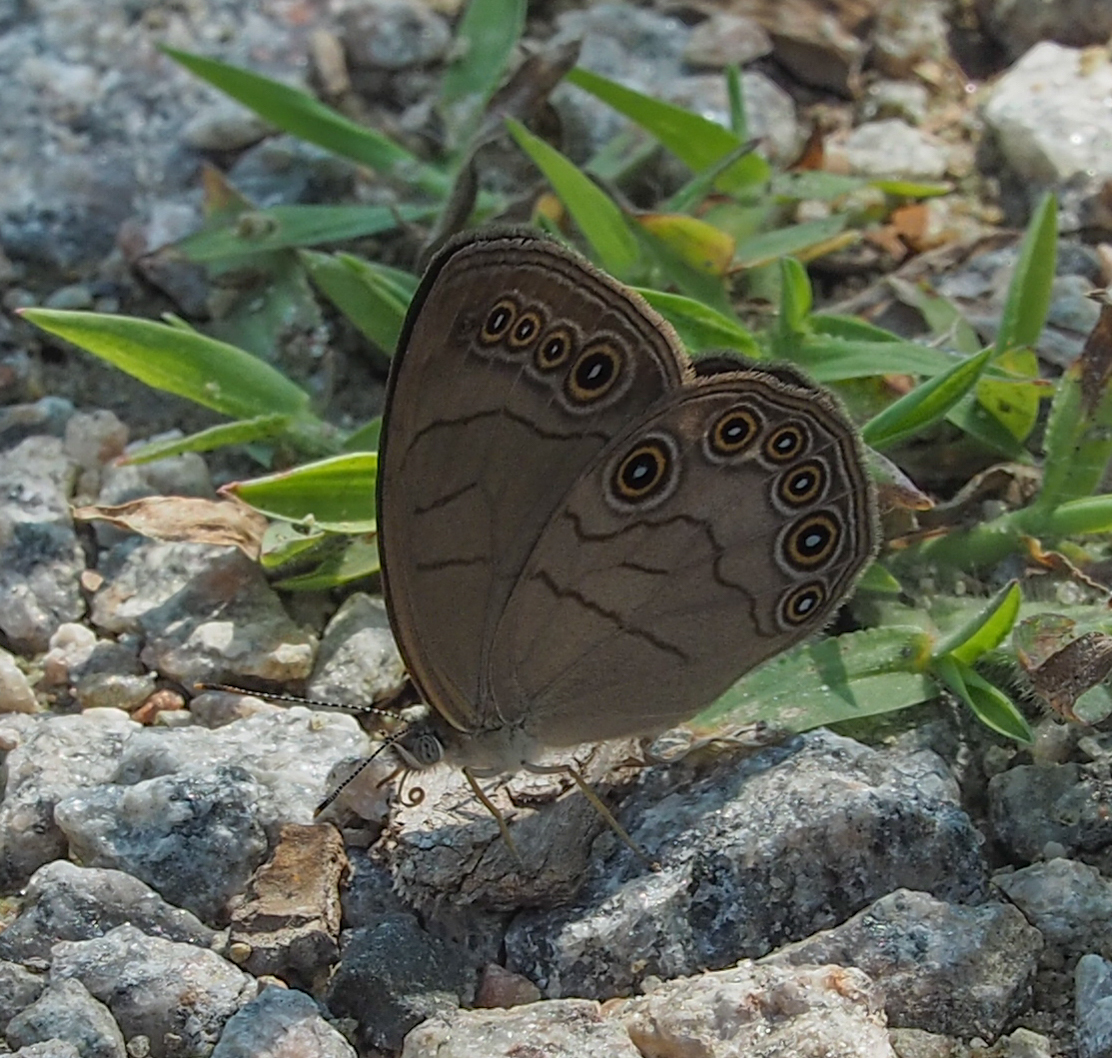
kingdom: Animalia
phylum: Arthropoda
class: Insecta
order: Lepidoptera
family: Nymphalidae
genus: Lethe
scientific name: Lethe eurydice
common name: Eyed brown
